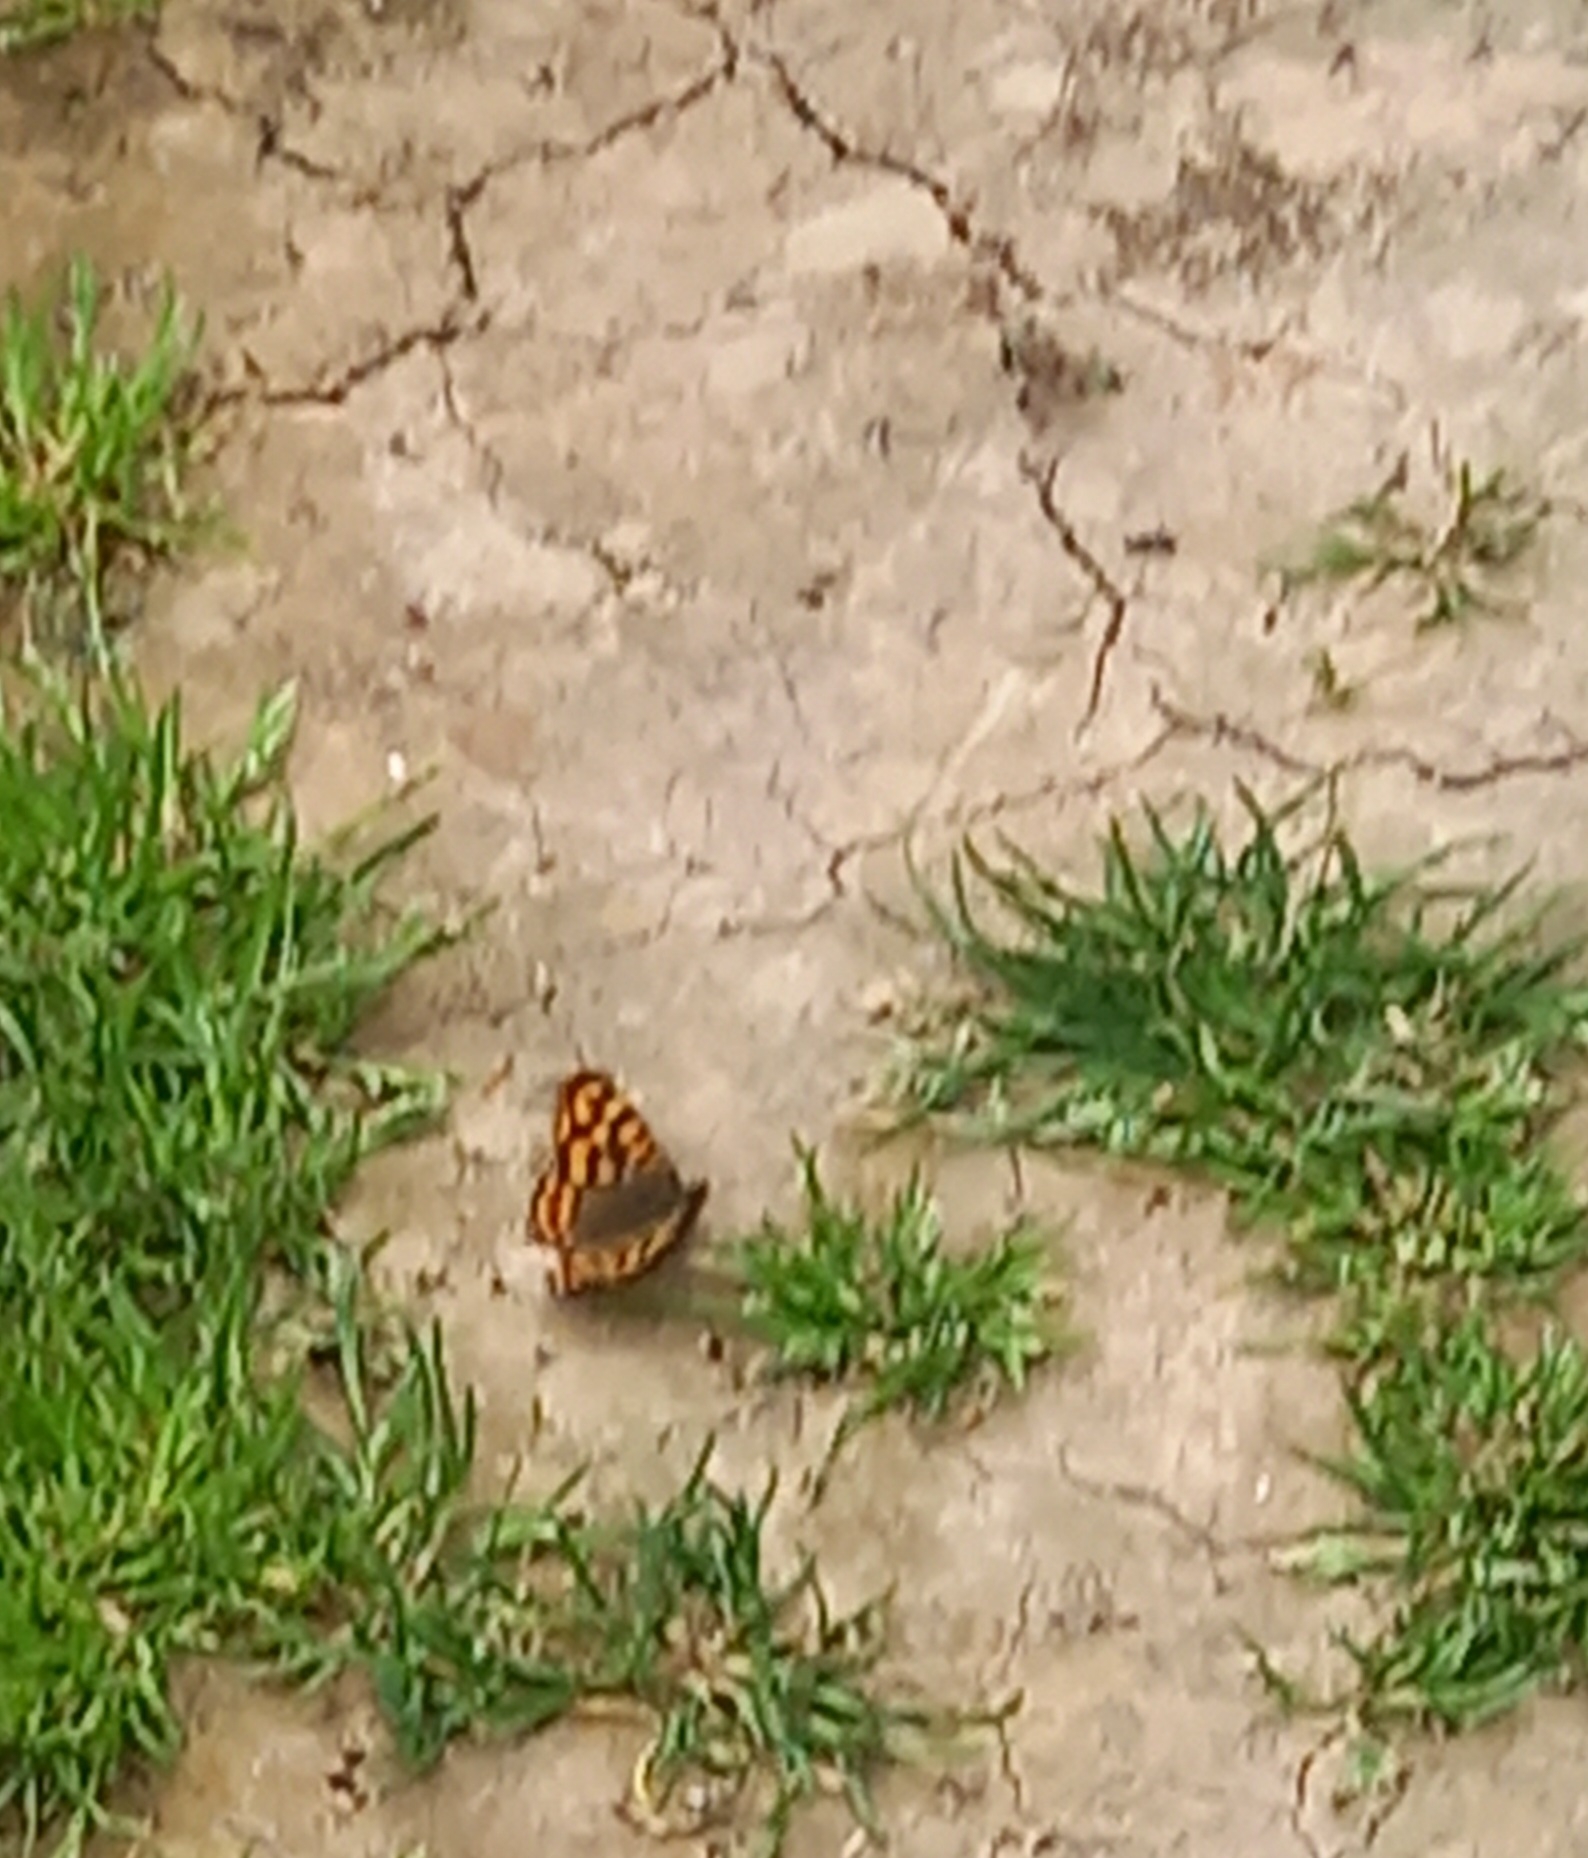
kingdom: Animalia
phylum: Arthropoda
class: Insecta
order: Lepidoptera
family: Nymphalidae
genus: Pararge
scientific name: Pararge aegeria
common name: Speckled wood
